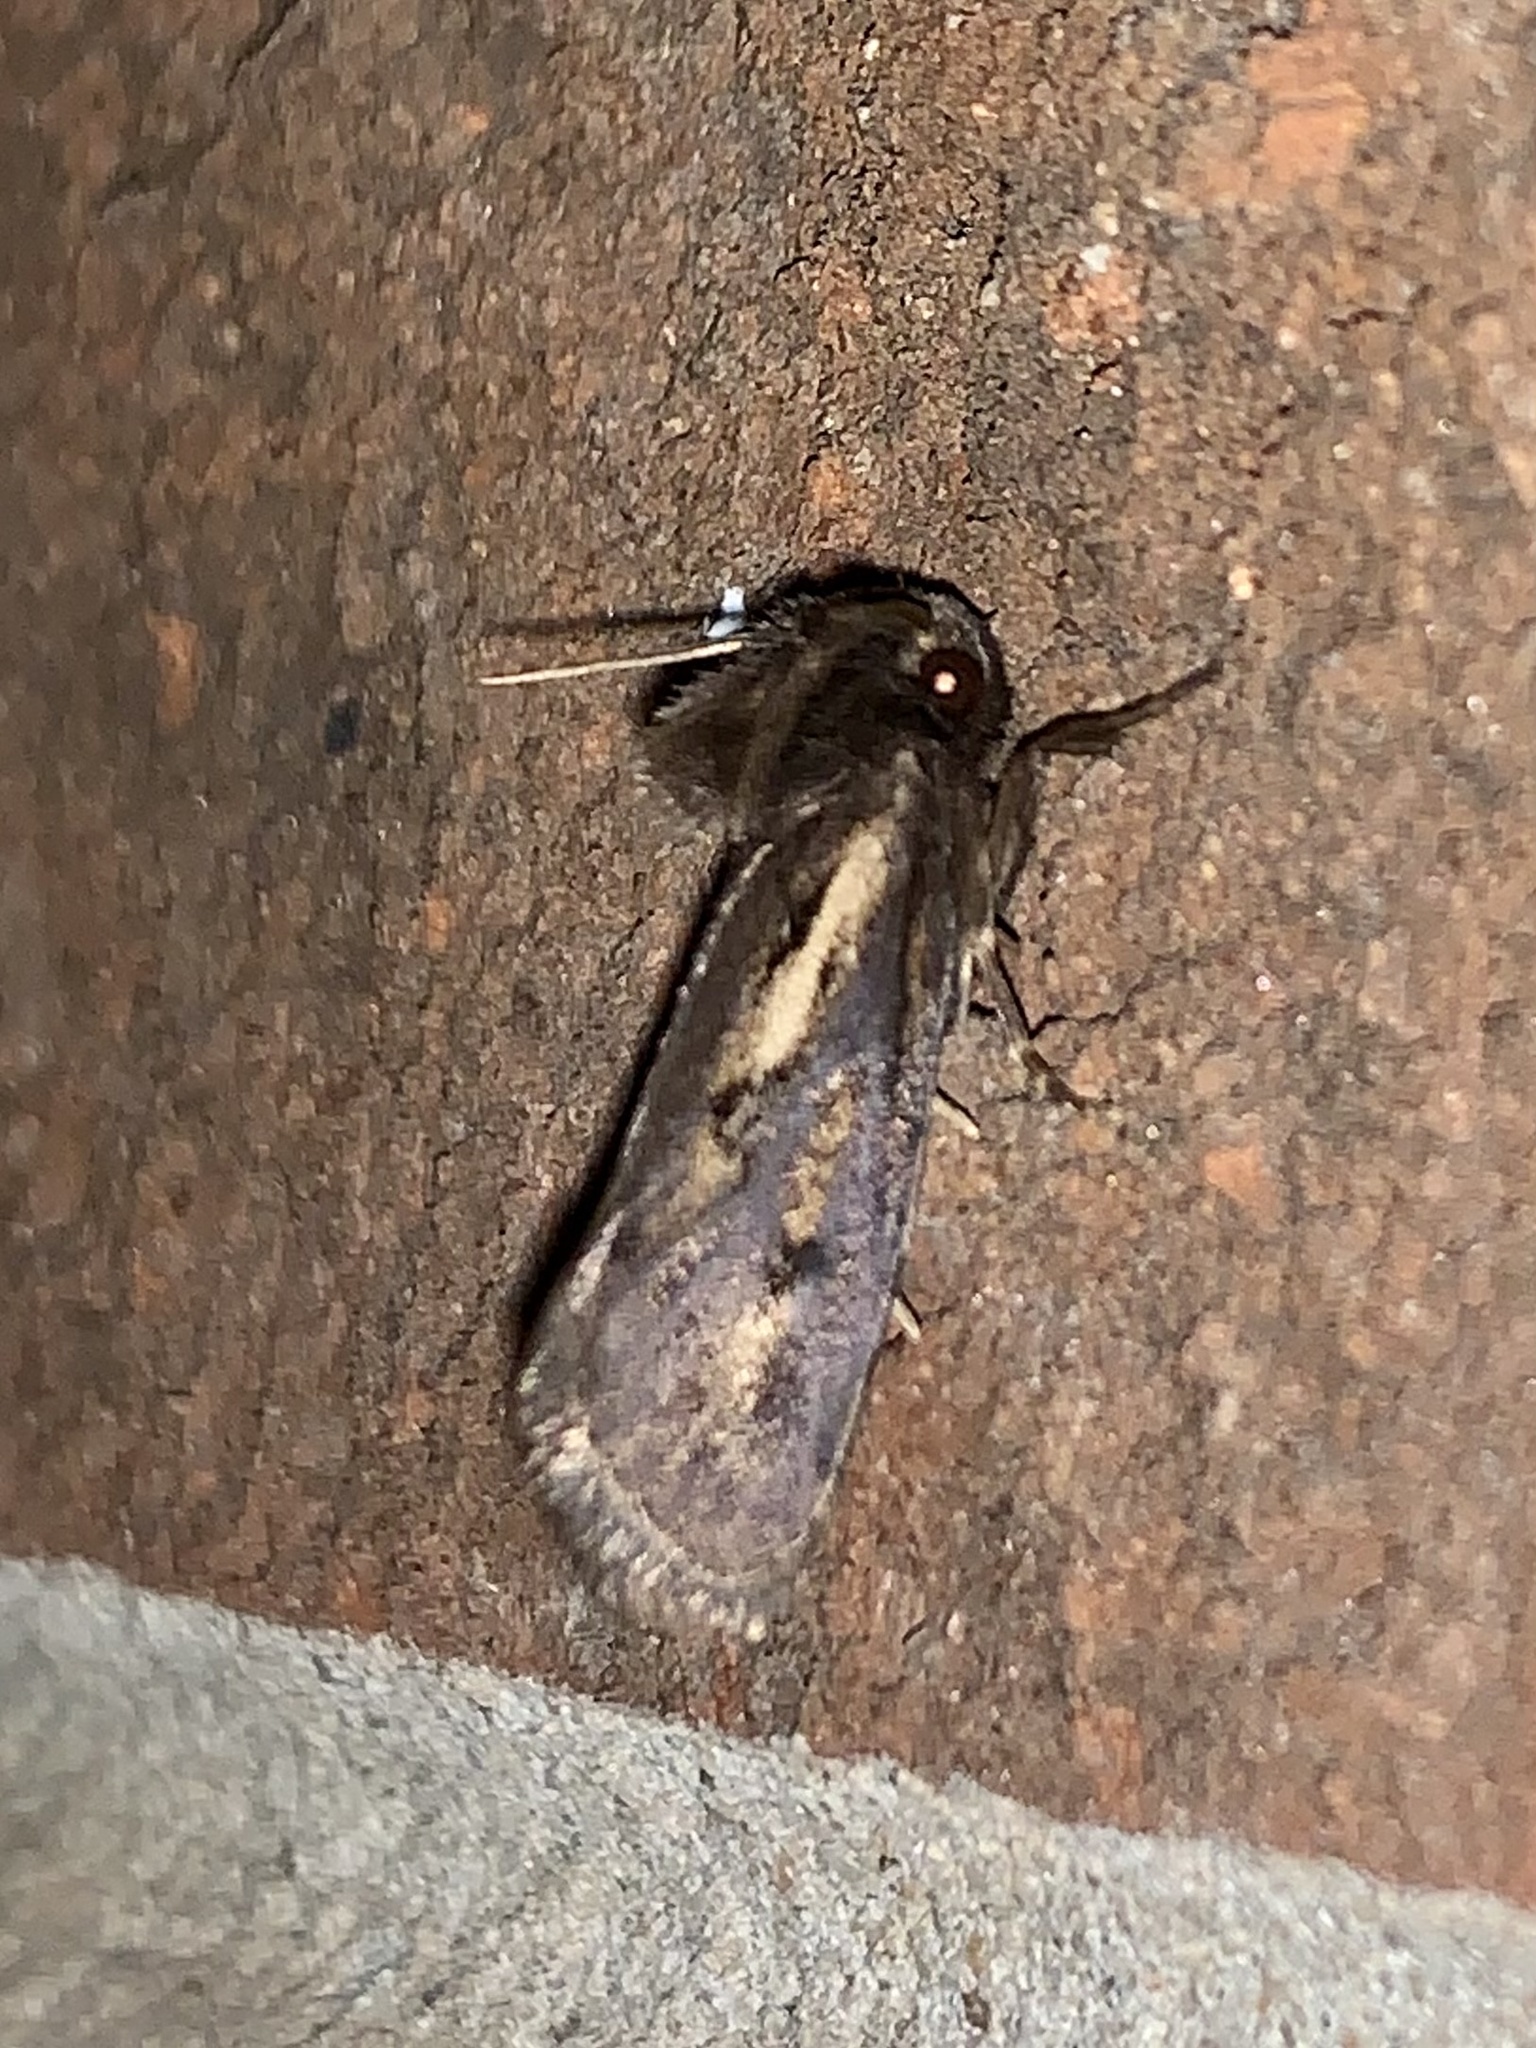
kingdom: Animalia
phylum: Arthropoda
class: Insecta
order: Lepidoptera
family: Tineidae
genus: Acrolophus
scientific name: Acrolophus popeanella
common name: Clemens' grass tubeworm moth
